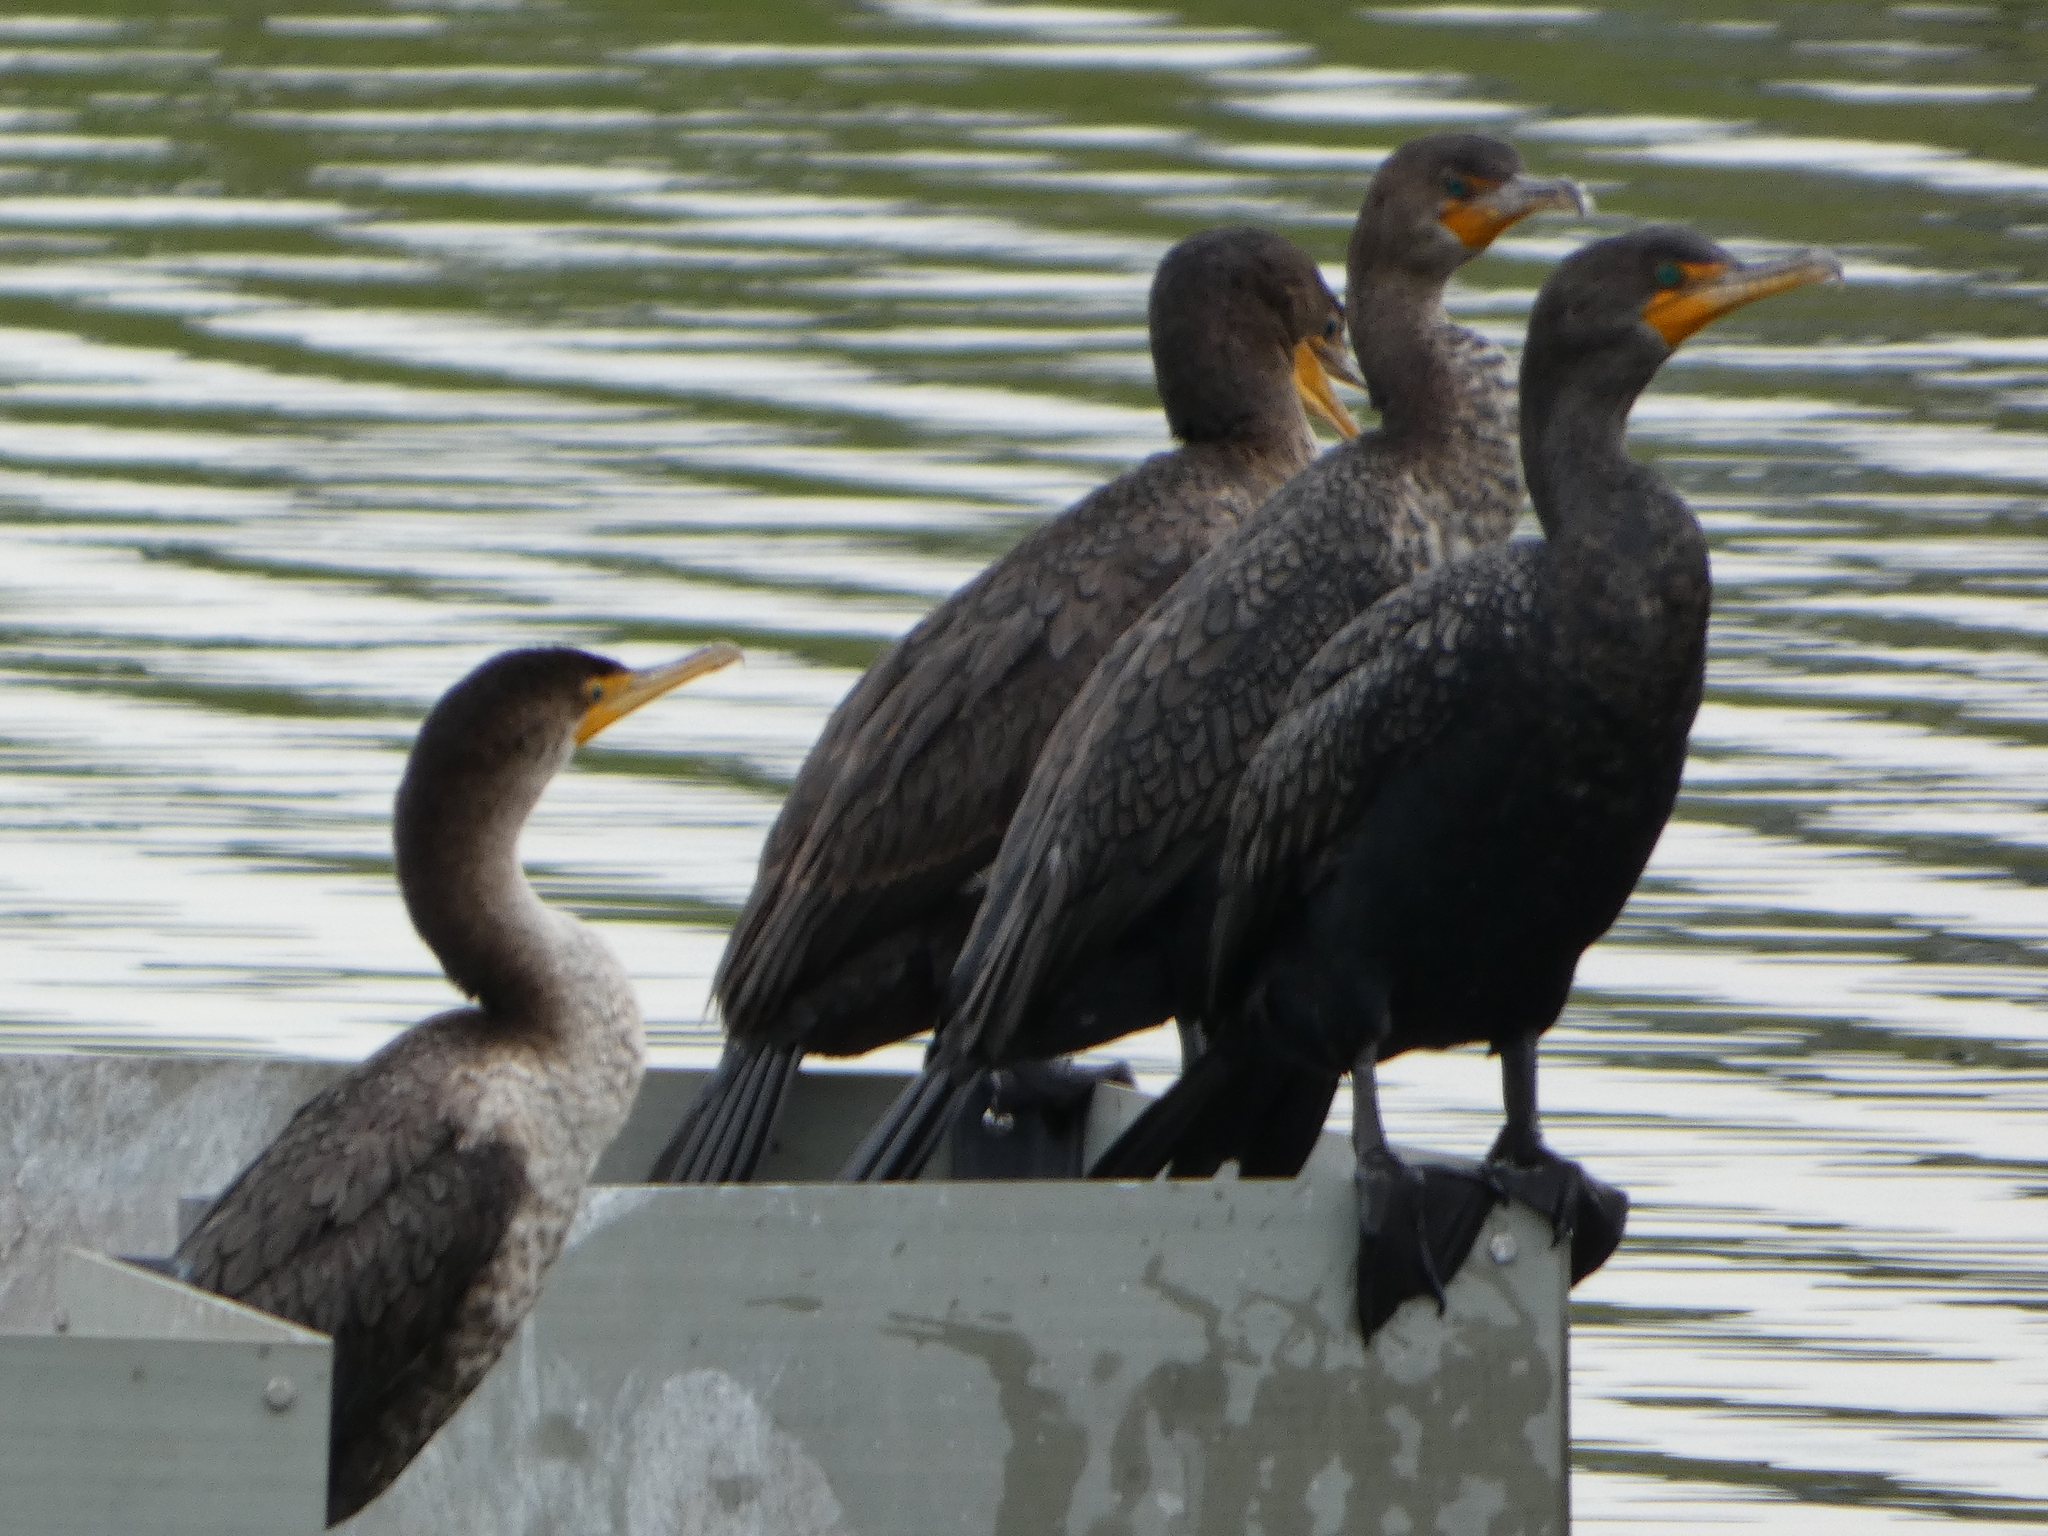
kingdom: Animalia
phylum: Chordata
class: Aves
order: Suliformes
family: Phalacrocoracidae
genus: Phalacrocorax
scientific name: Phalacrocorax auritus
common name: Double-crested cormorant
